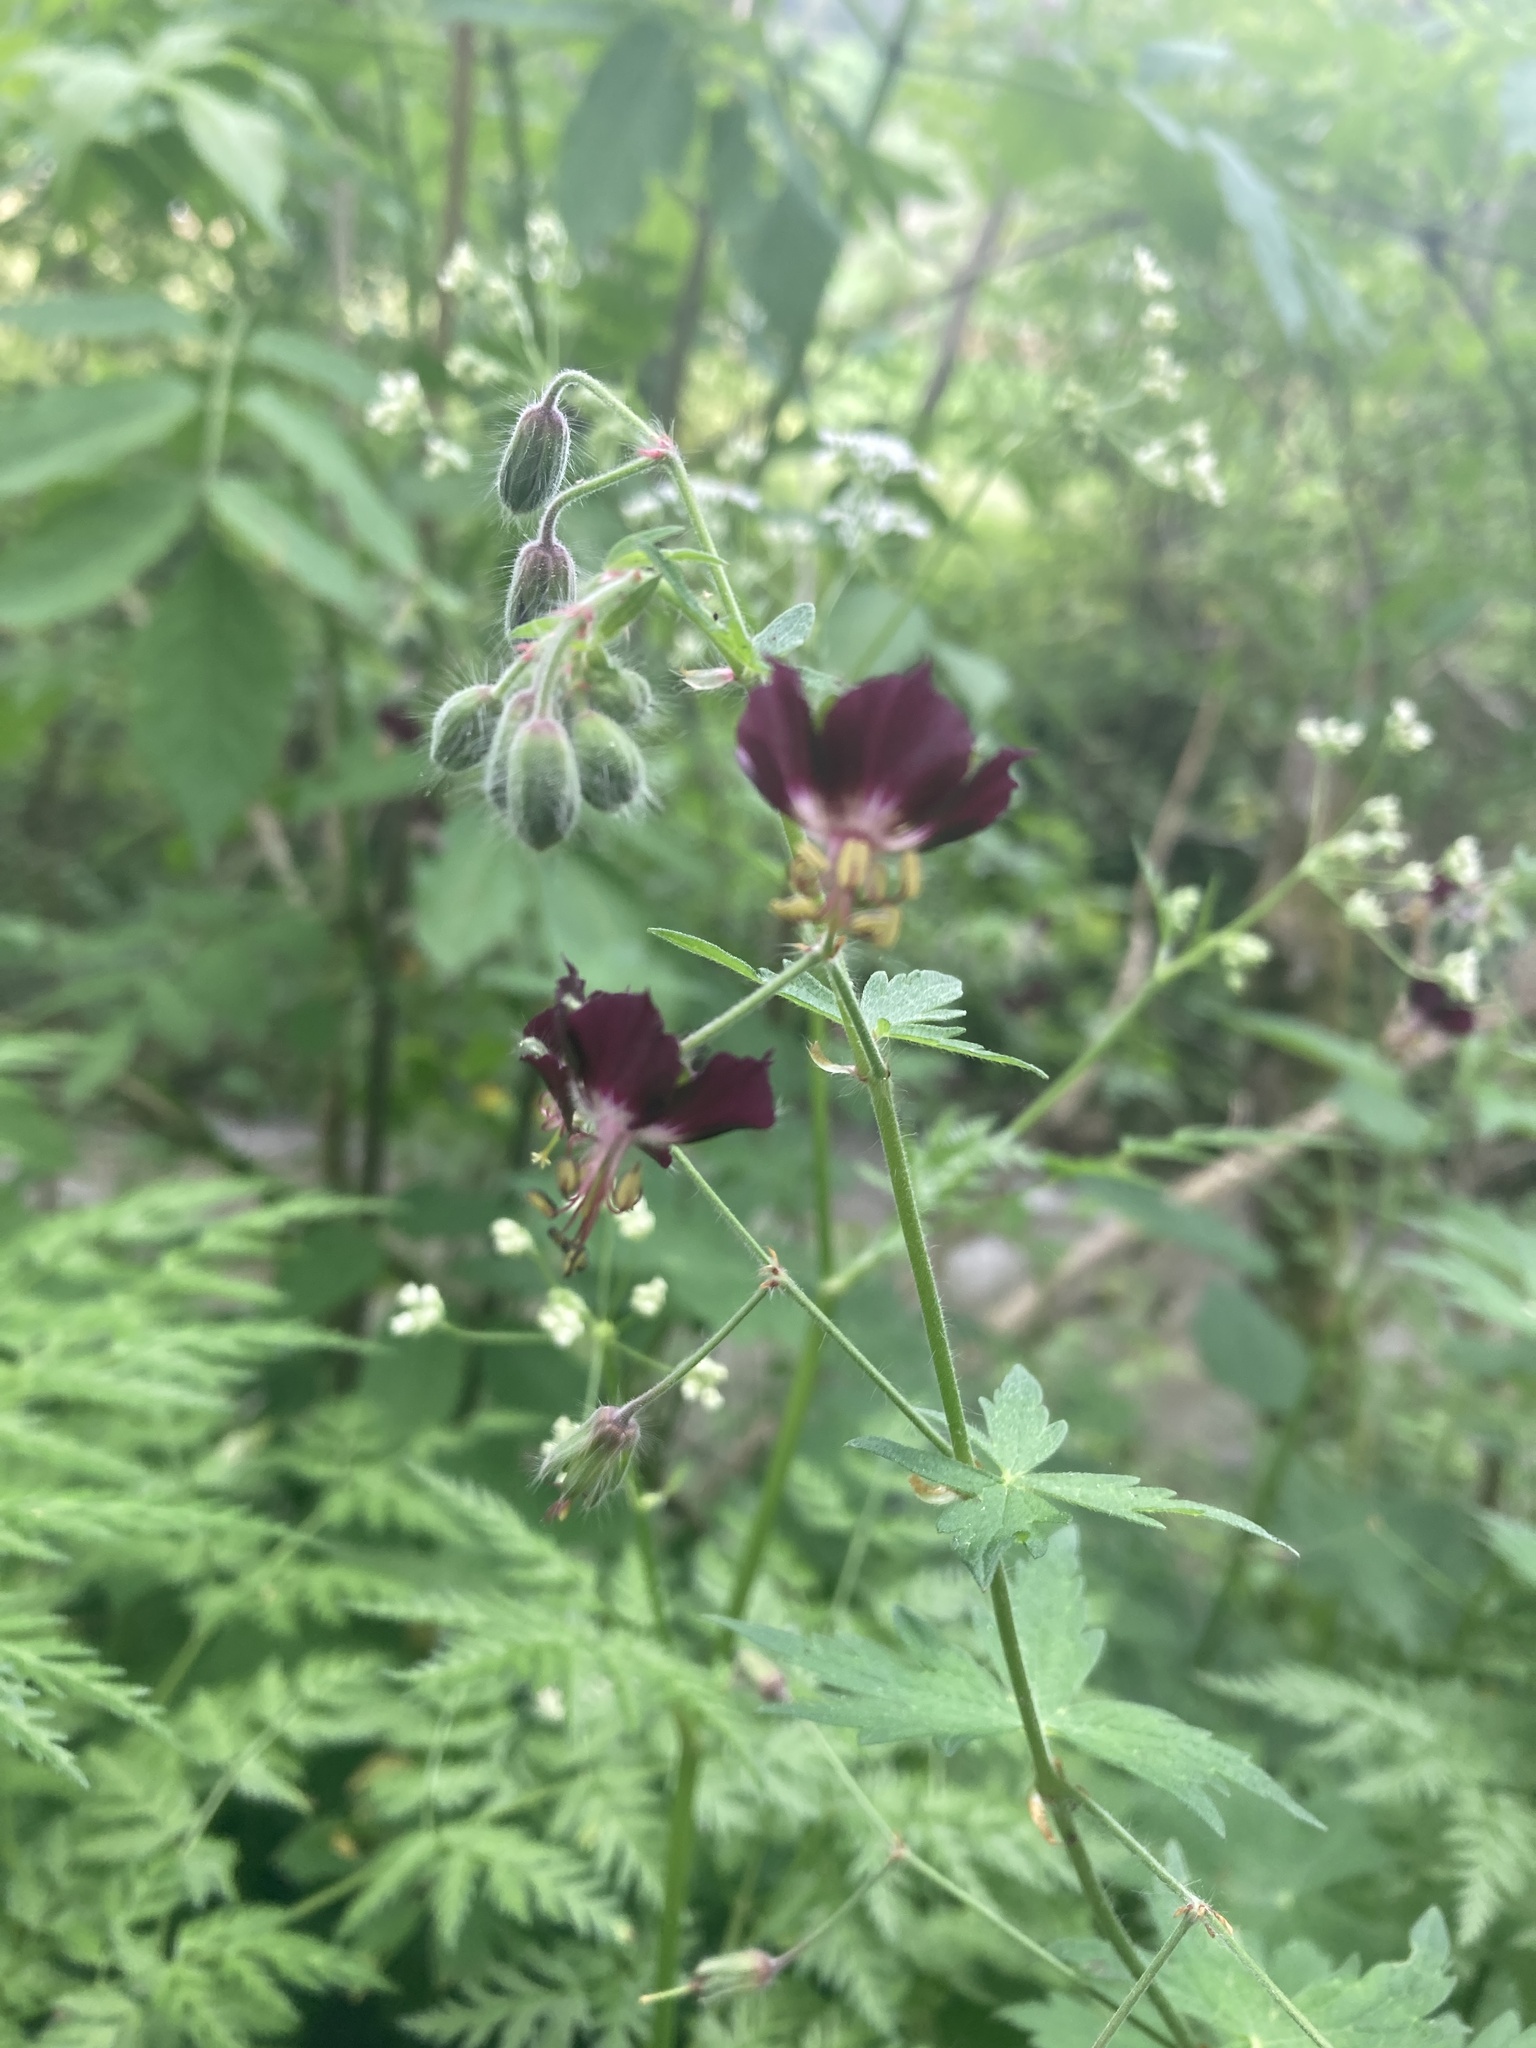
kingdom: Plantae
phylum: Tracheophyta
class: Magnoliopsida
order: Geraniales
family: Geraniaceae
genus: Geranium
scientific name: Geranium phaeum
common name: Dusky crane's-bill
